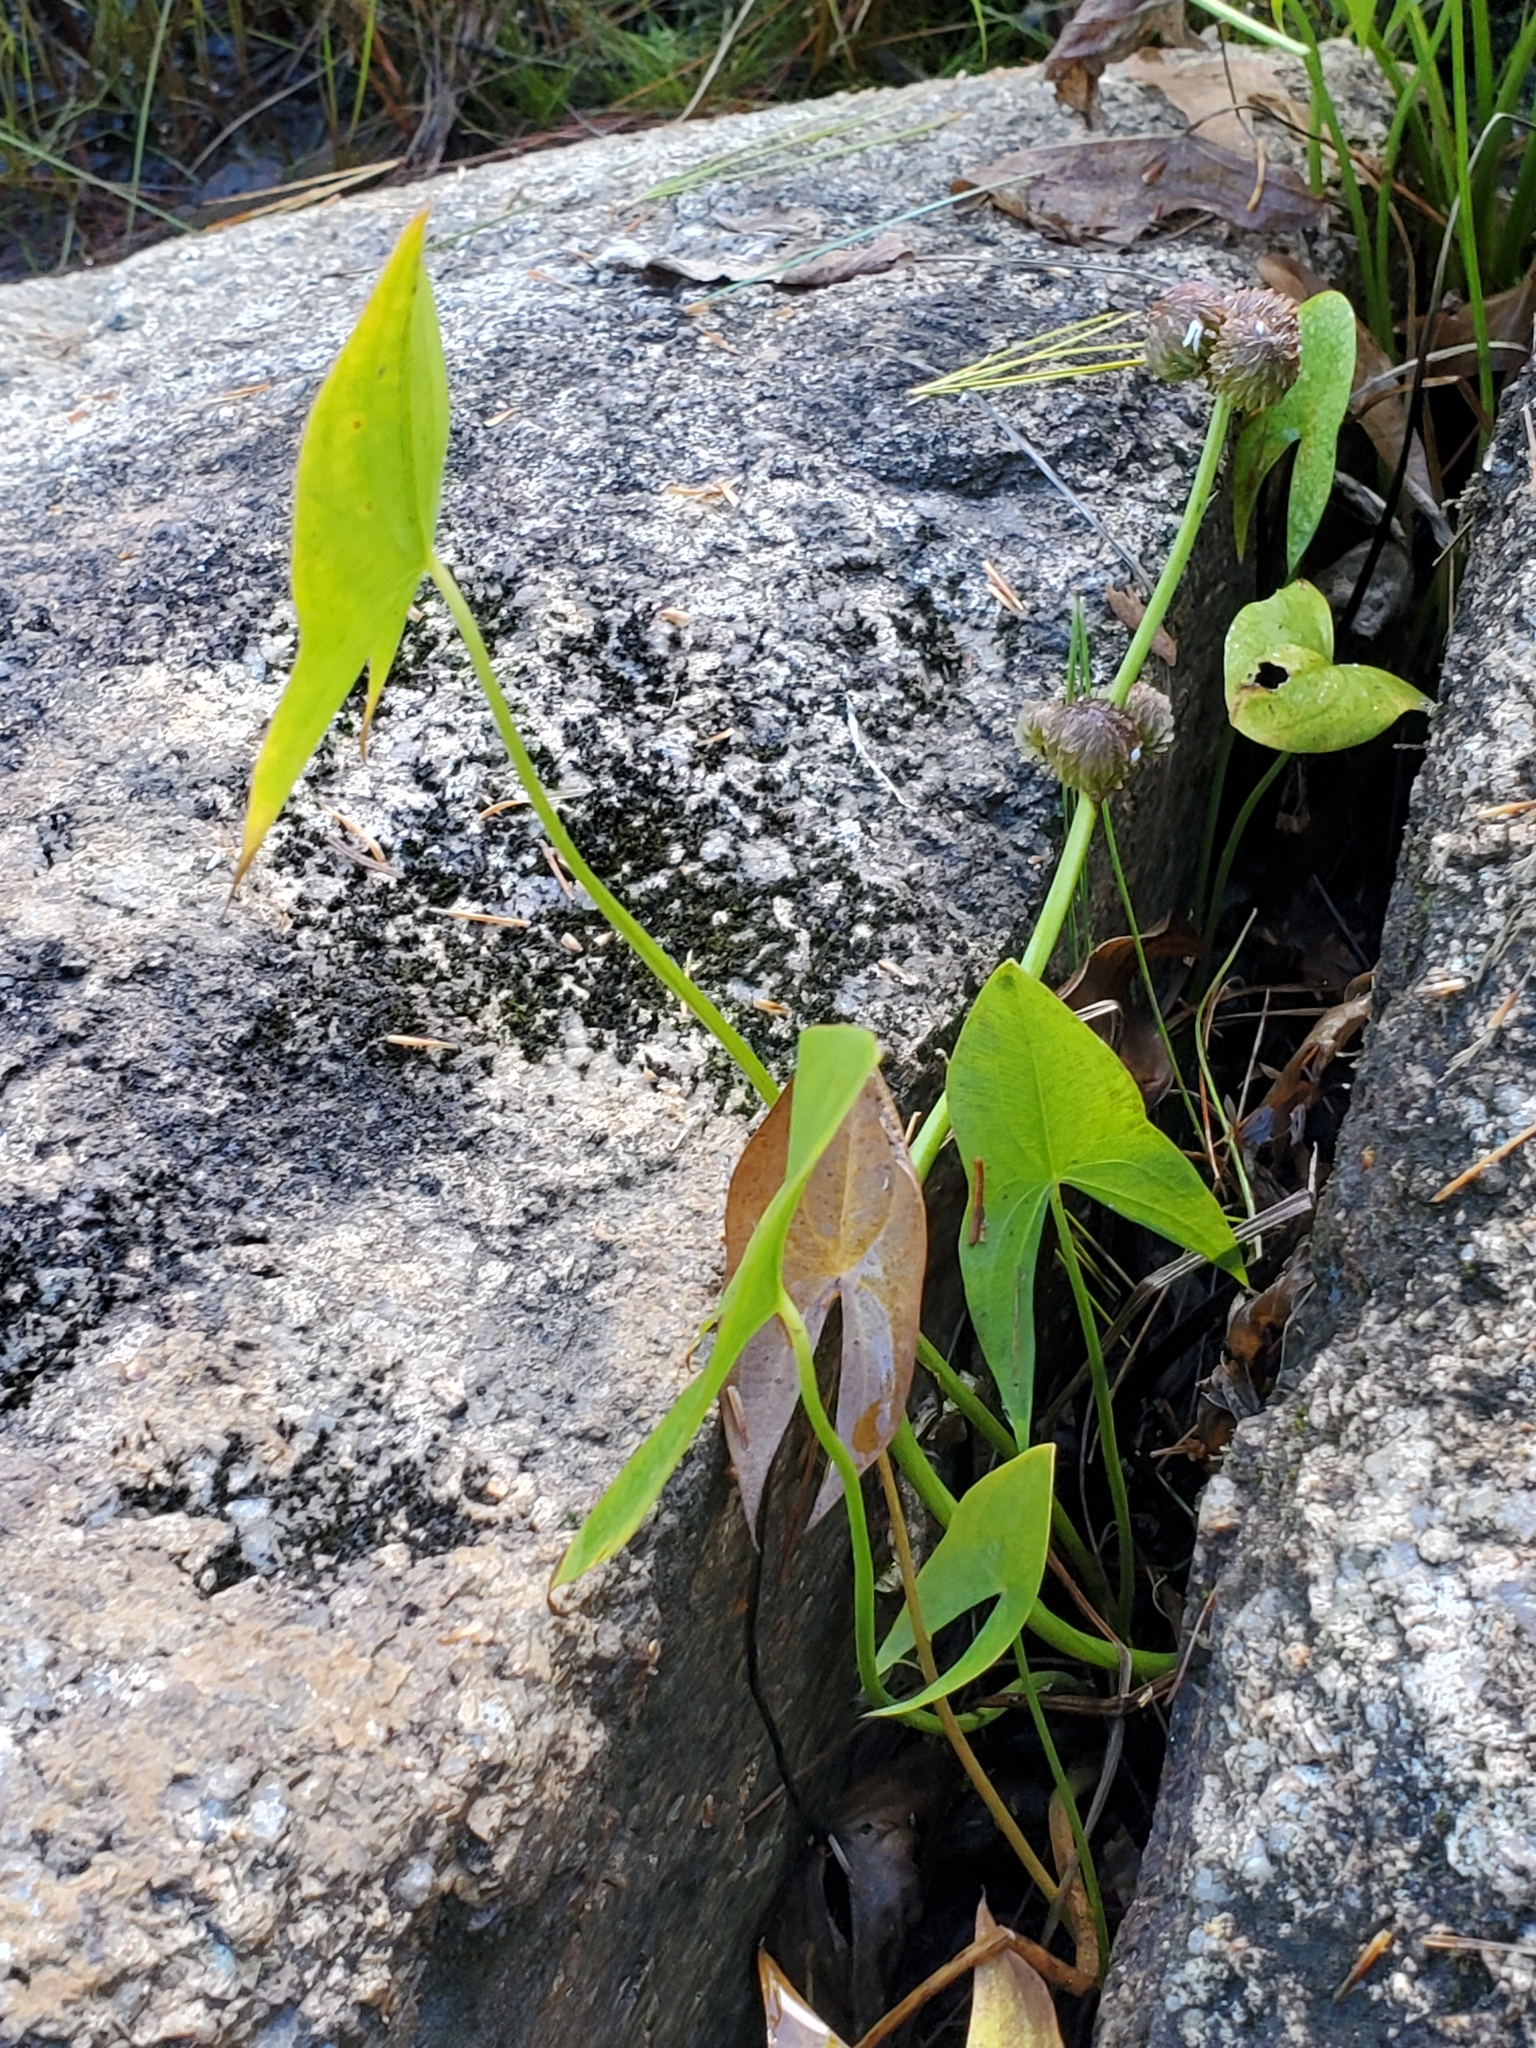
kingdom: Plantae
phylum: Tracheophyta
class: Liliopsida
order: Alismatales
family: Alismataceae
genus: Sagittaria
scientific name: Sagittaria latifolia
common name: Duck-potato
